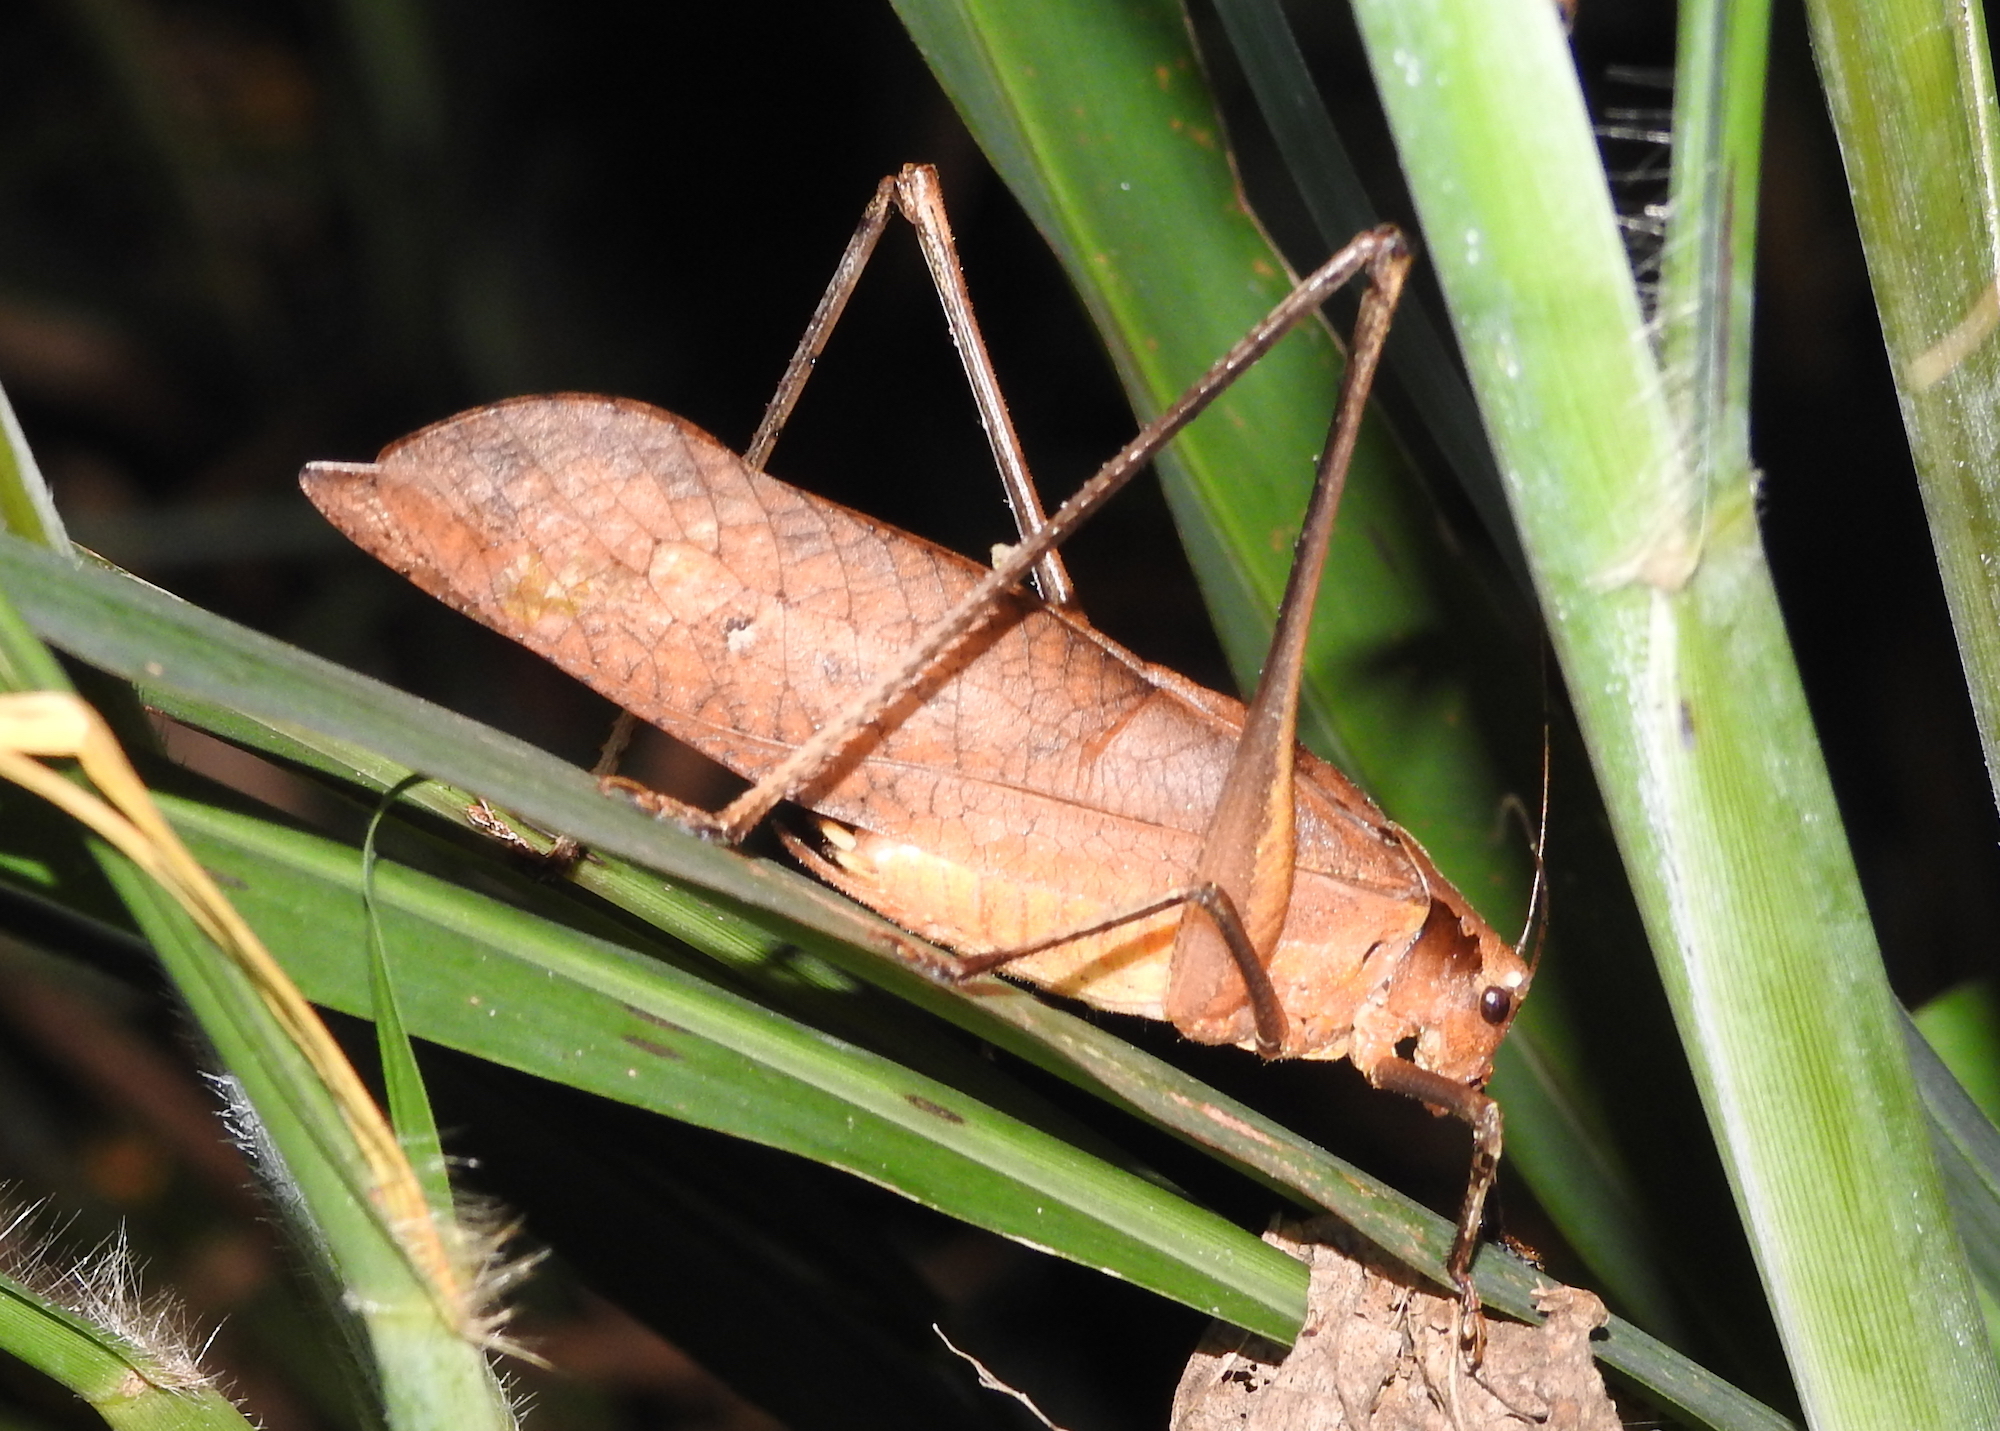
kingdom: Animalia
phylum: Arthropoda
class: Insecta
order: Orthoptera
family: Tettigoniidae
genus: Mecopoda
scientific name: Mecopoda elongata
